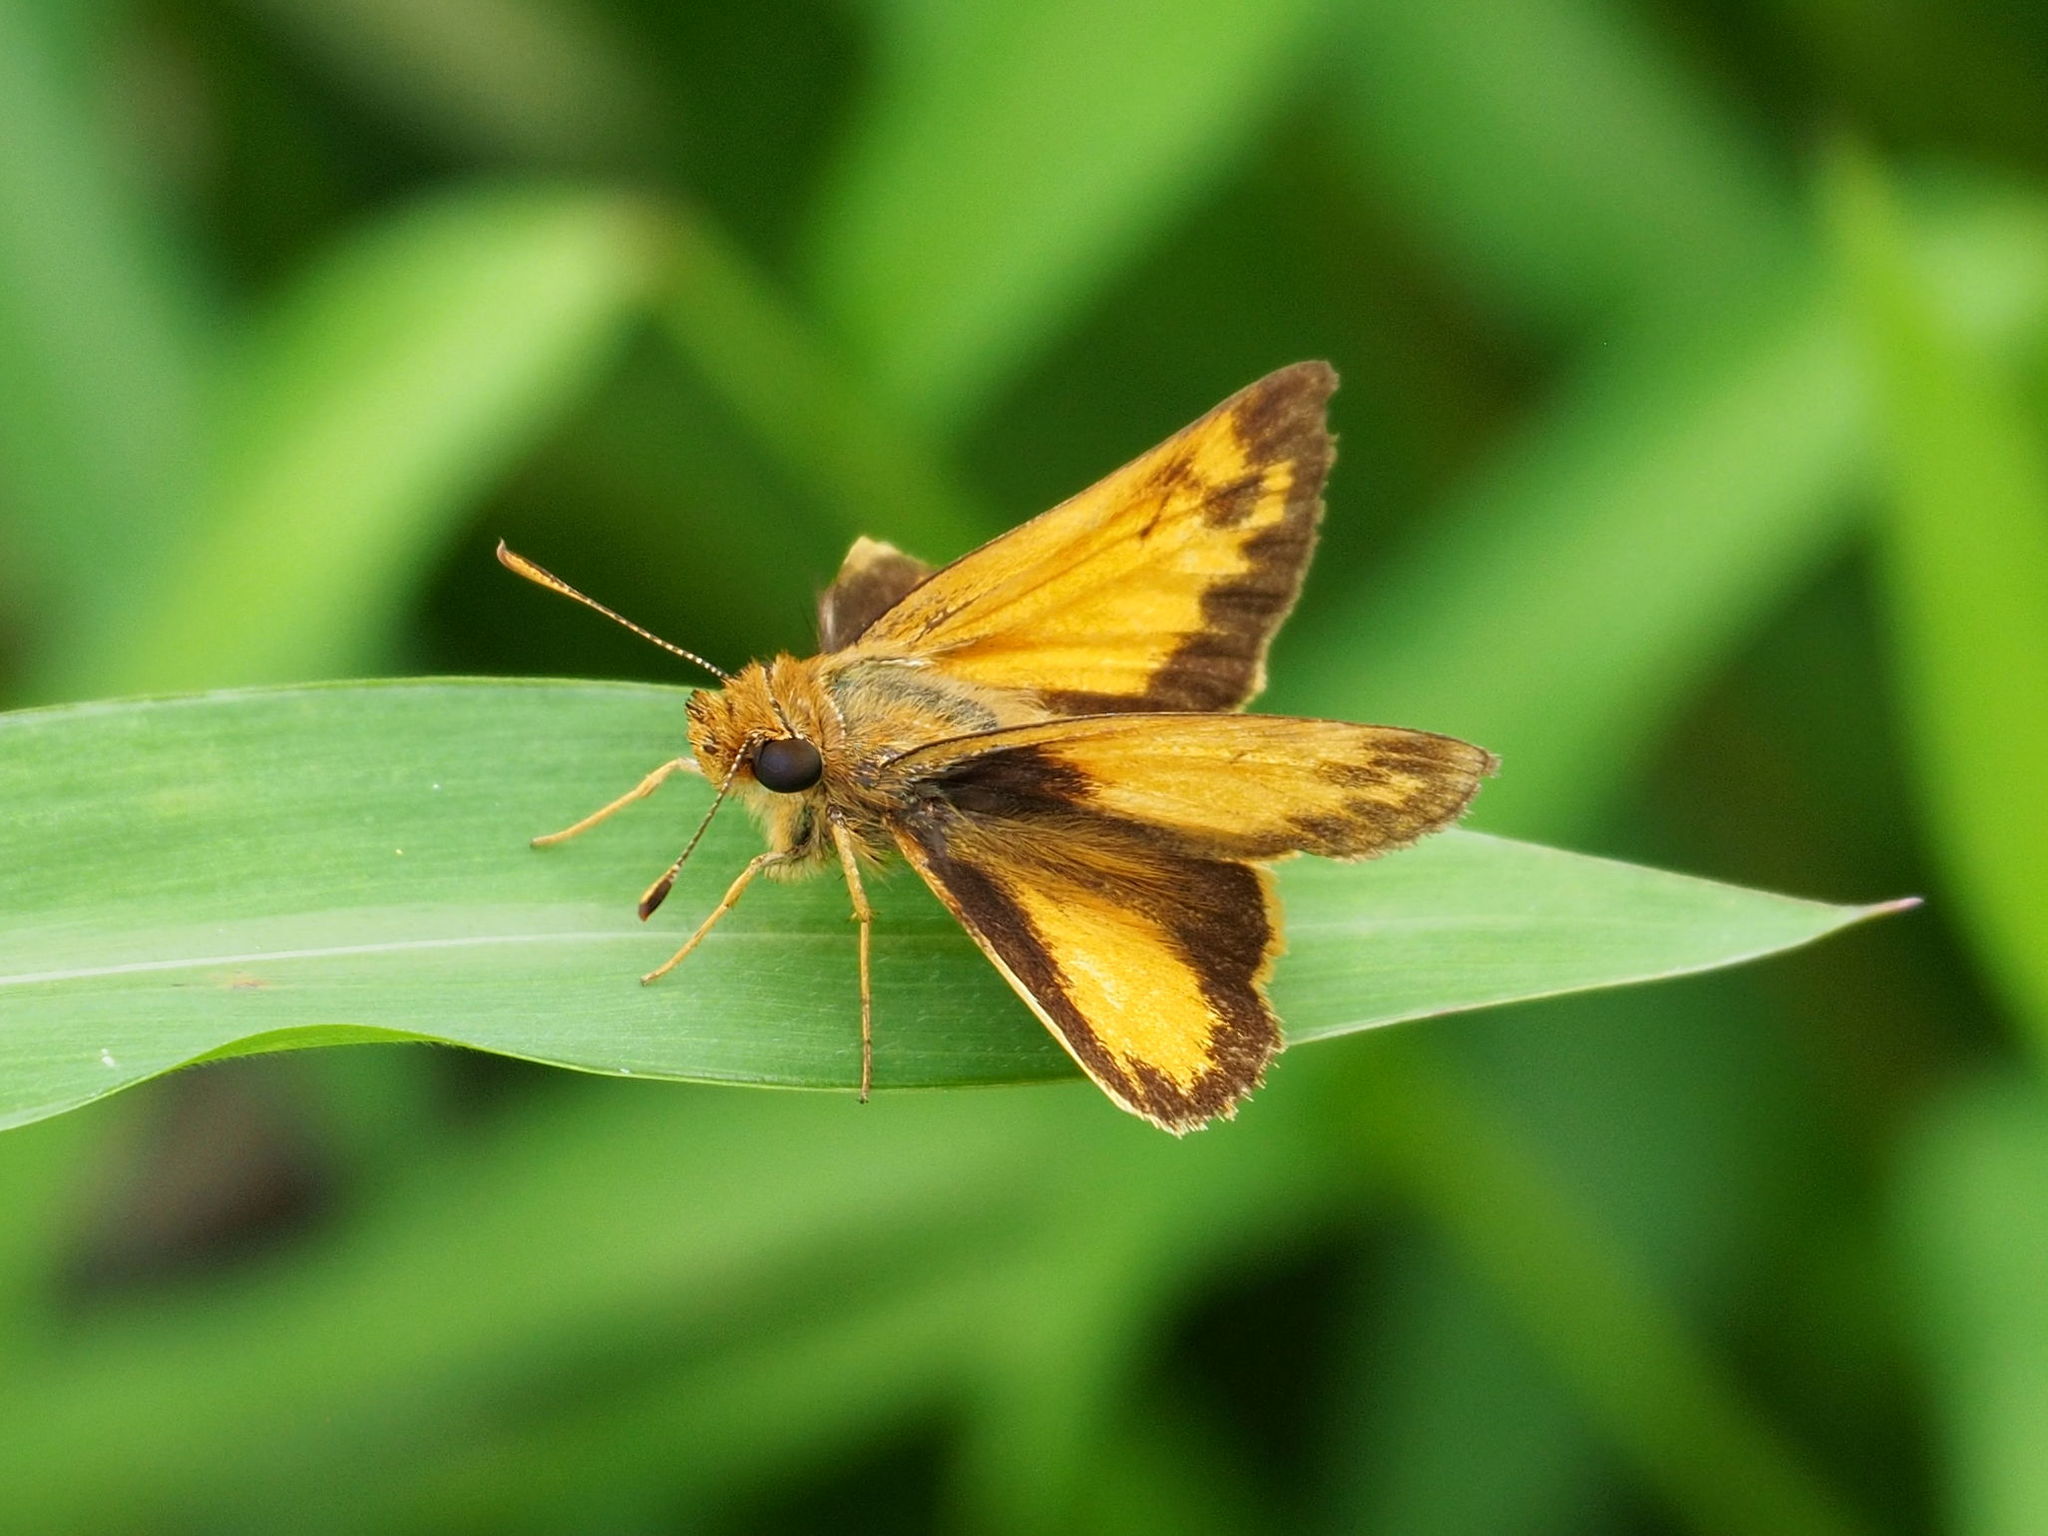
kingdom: Animalia
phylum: Arthropoda
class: Insecta
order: Lepidoptera
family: Hesperiidae
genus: Lon
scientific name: Lon zabulon
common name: Zabulon skipper
